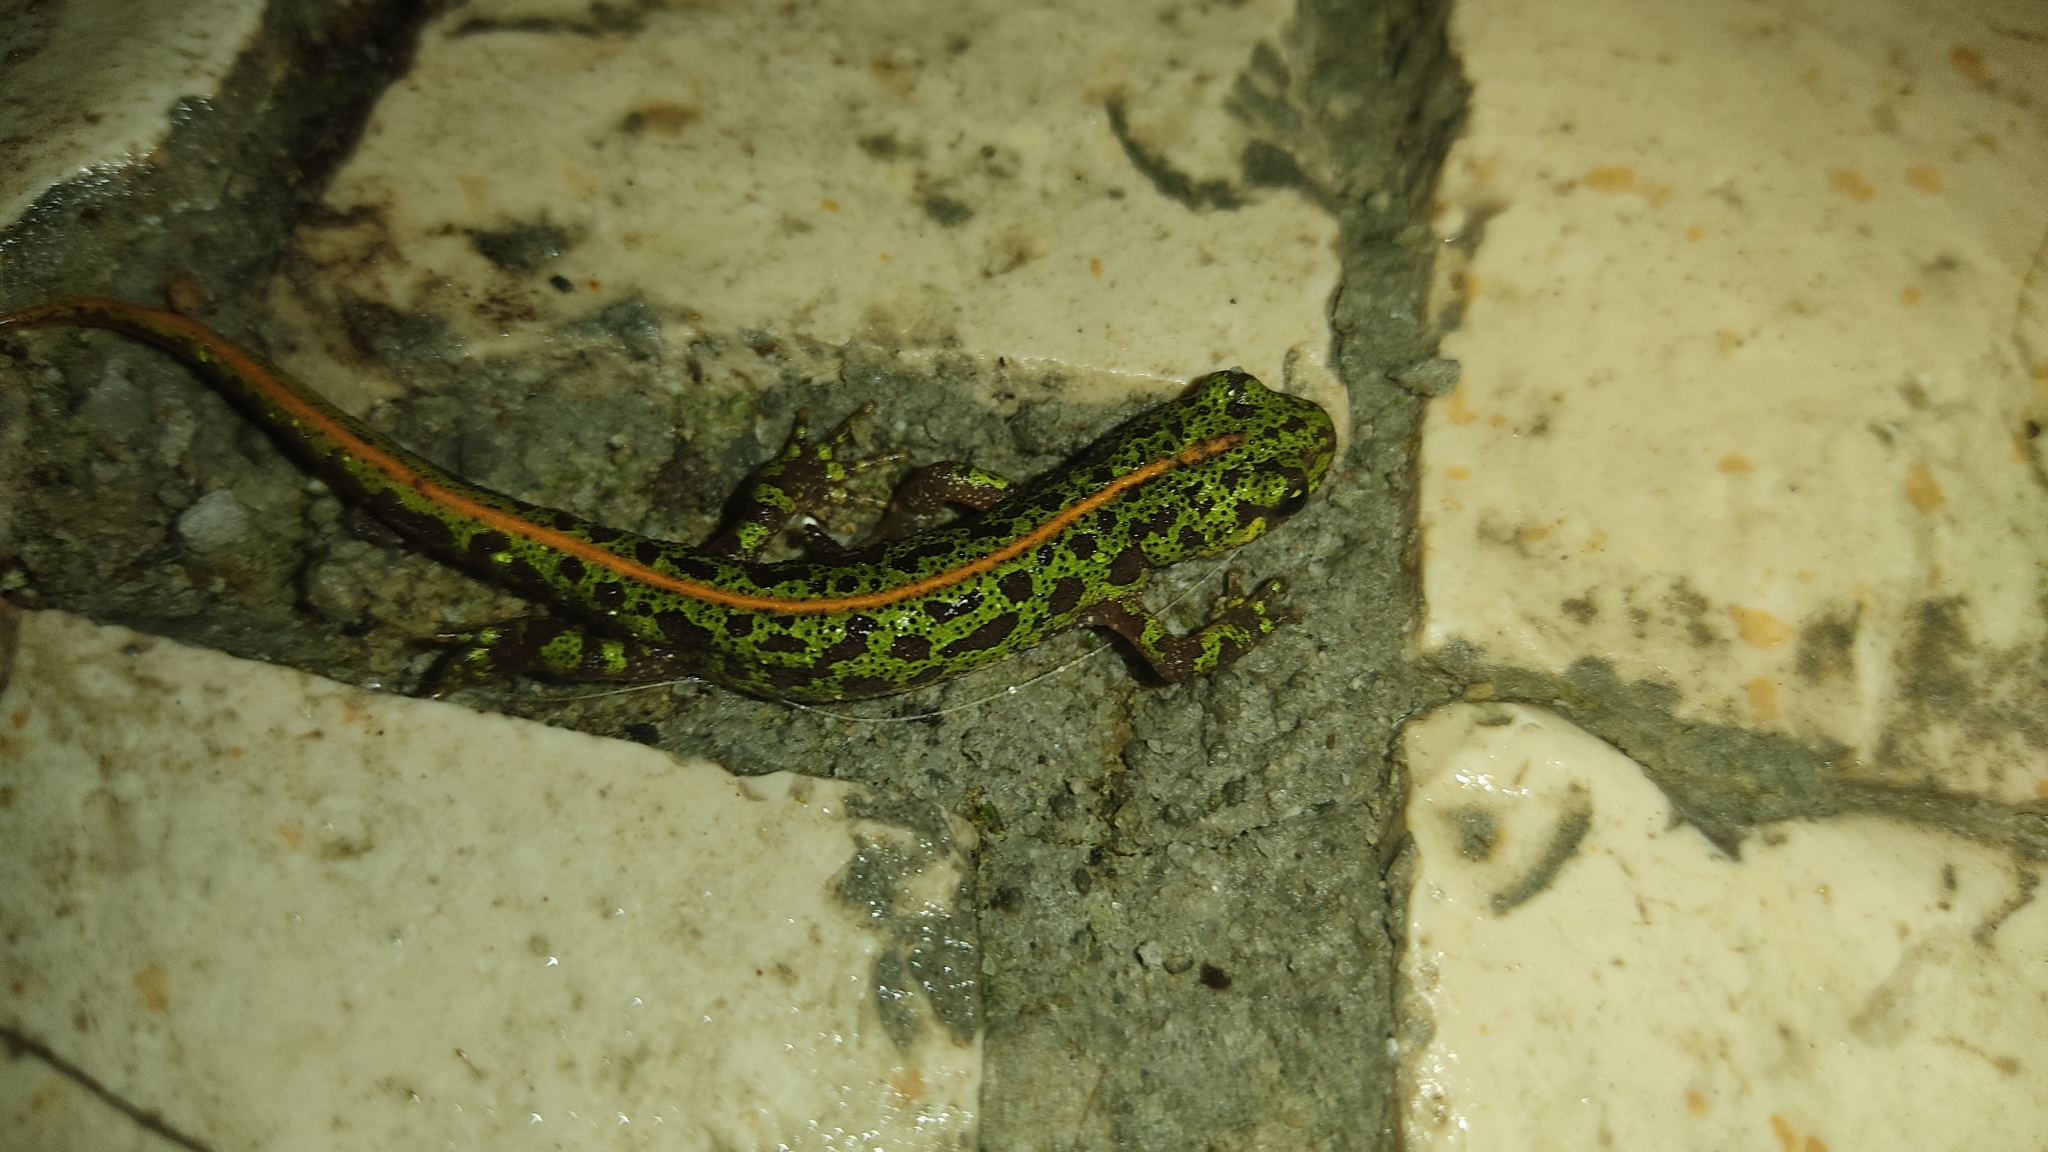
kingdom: Animalia
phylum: Chordata
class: Amphibia
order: Caudata
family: Salamandridae
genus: Triturus
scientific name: Triturus pygmaeus
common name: Southern marbled newt
